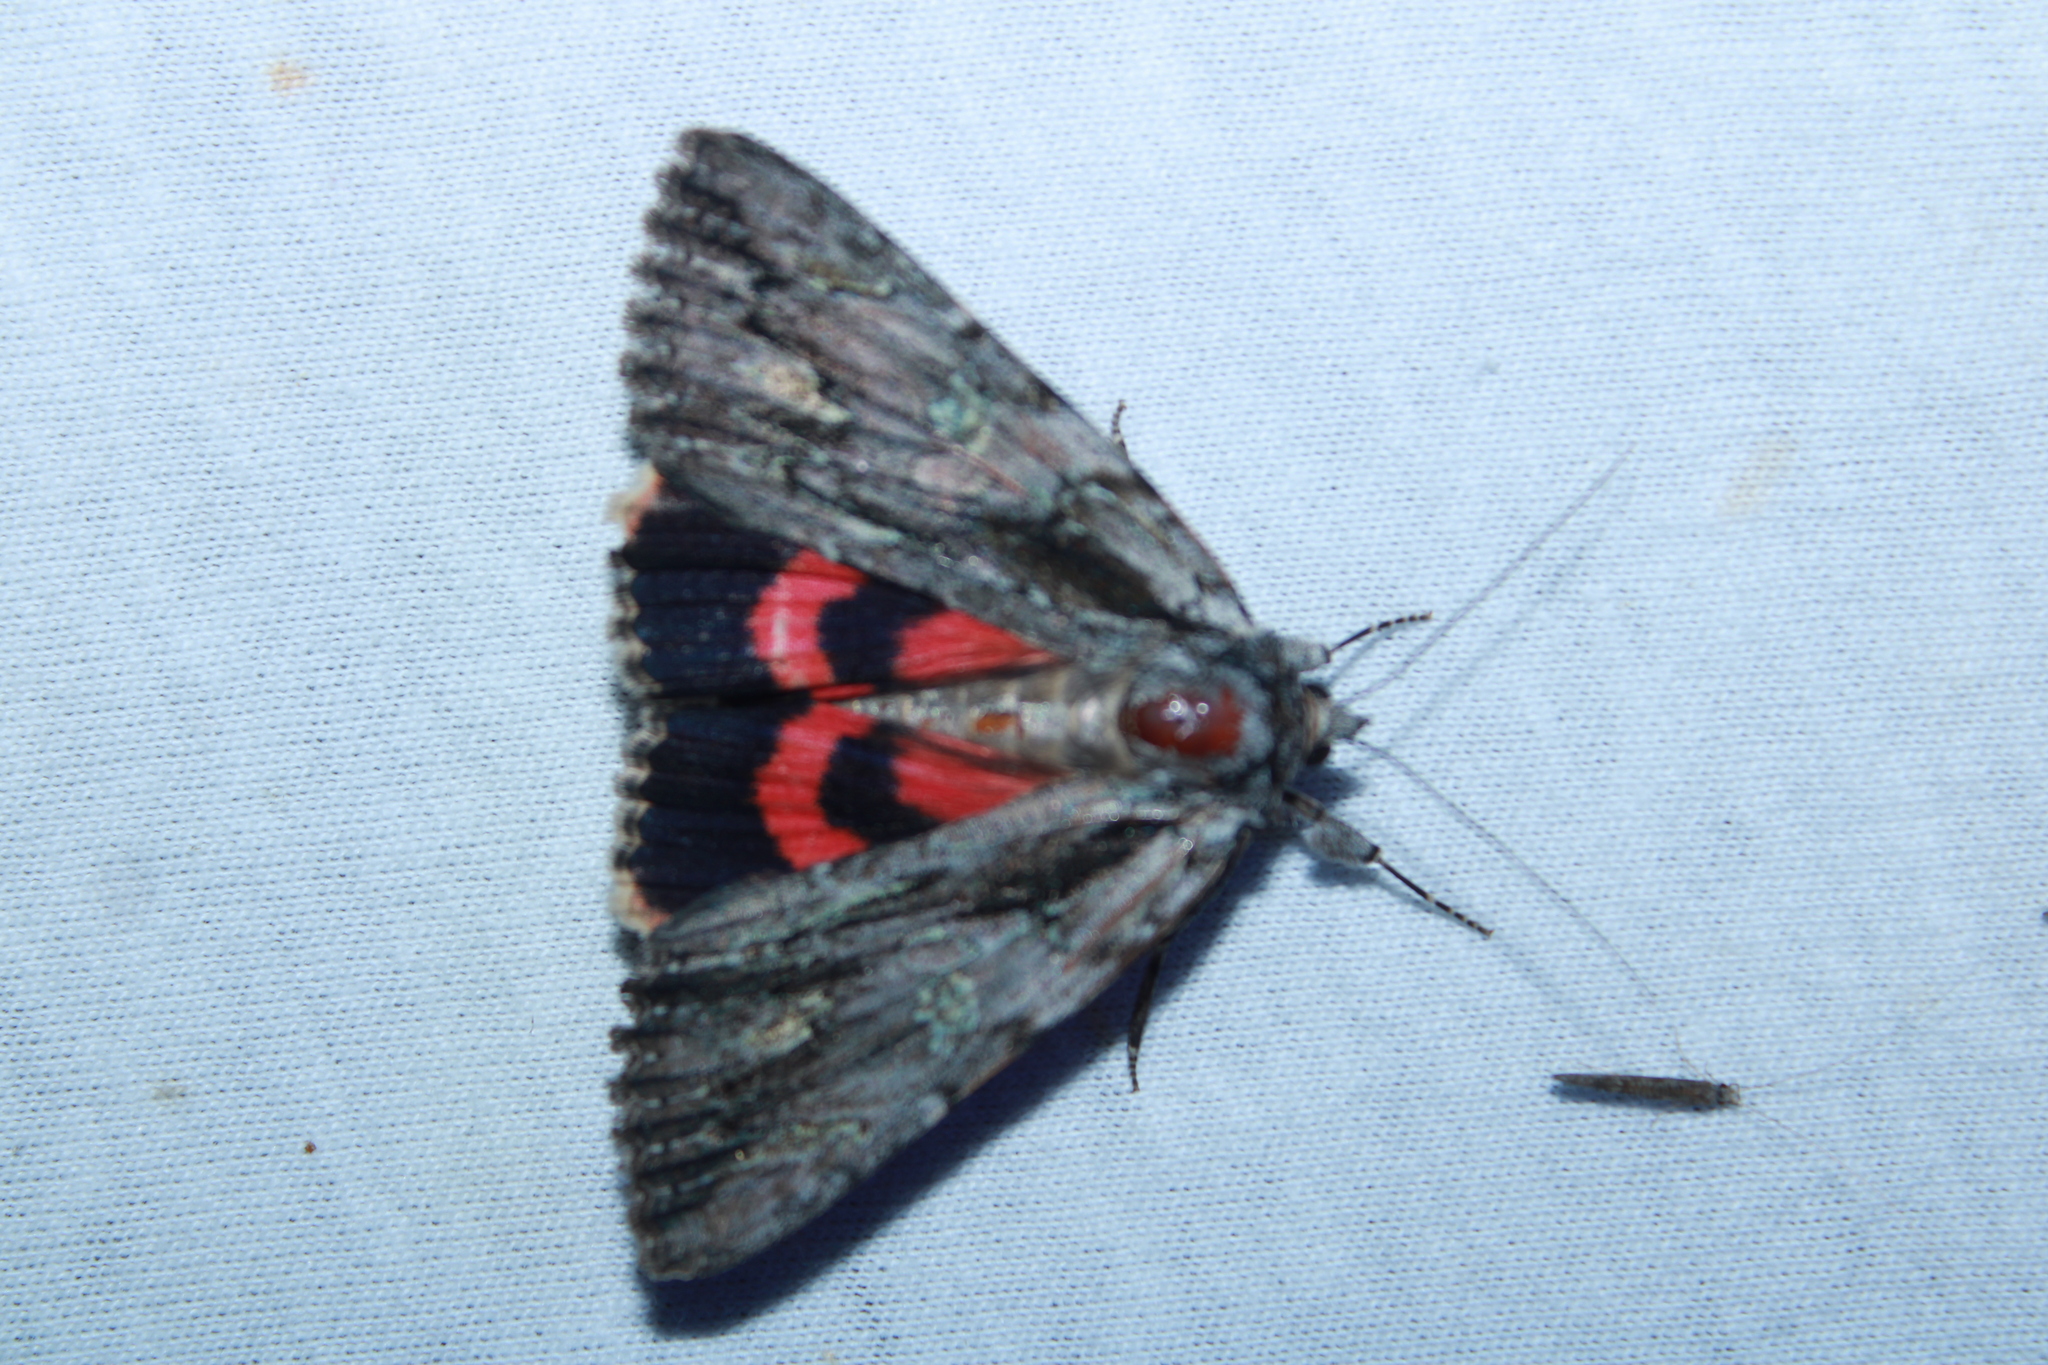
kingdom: Animalia
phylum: Arthropoda
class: Insecta
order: Lepidoptera
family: Erebidae
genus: Catocala
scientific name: Catocala coccinata
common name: Scarlet underwing
